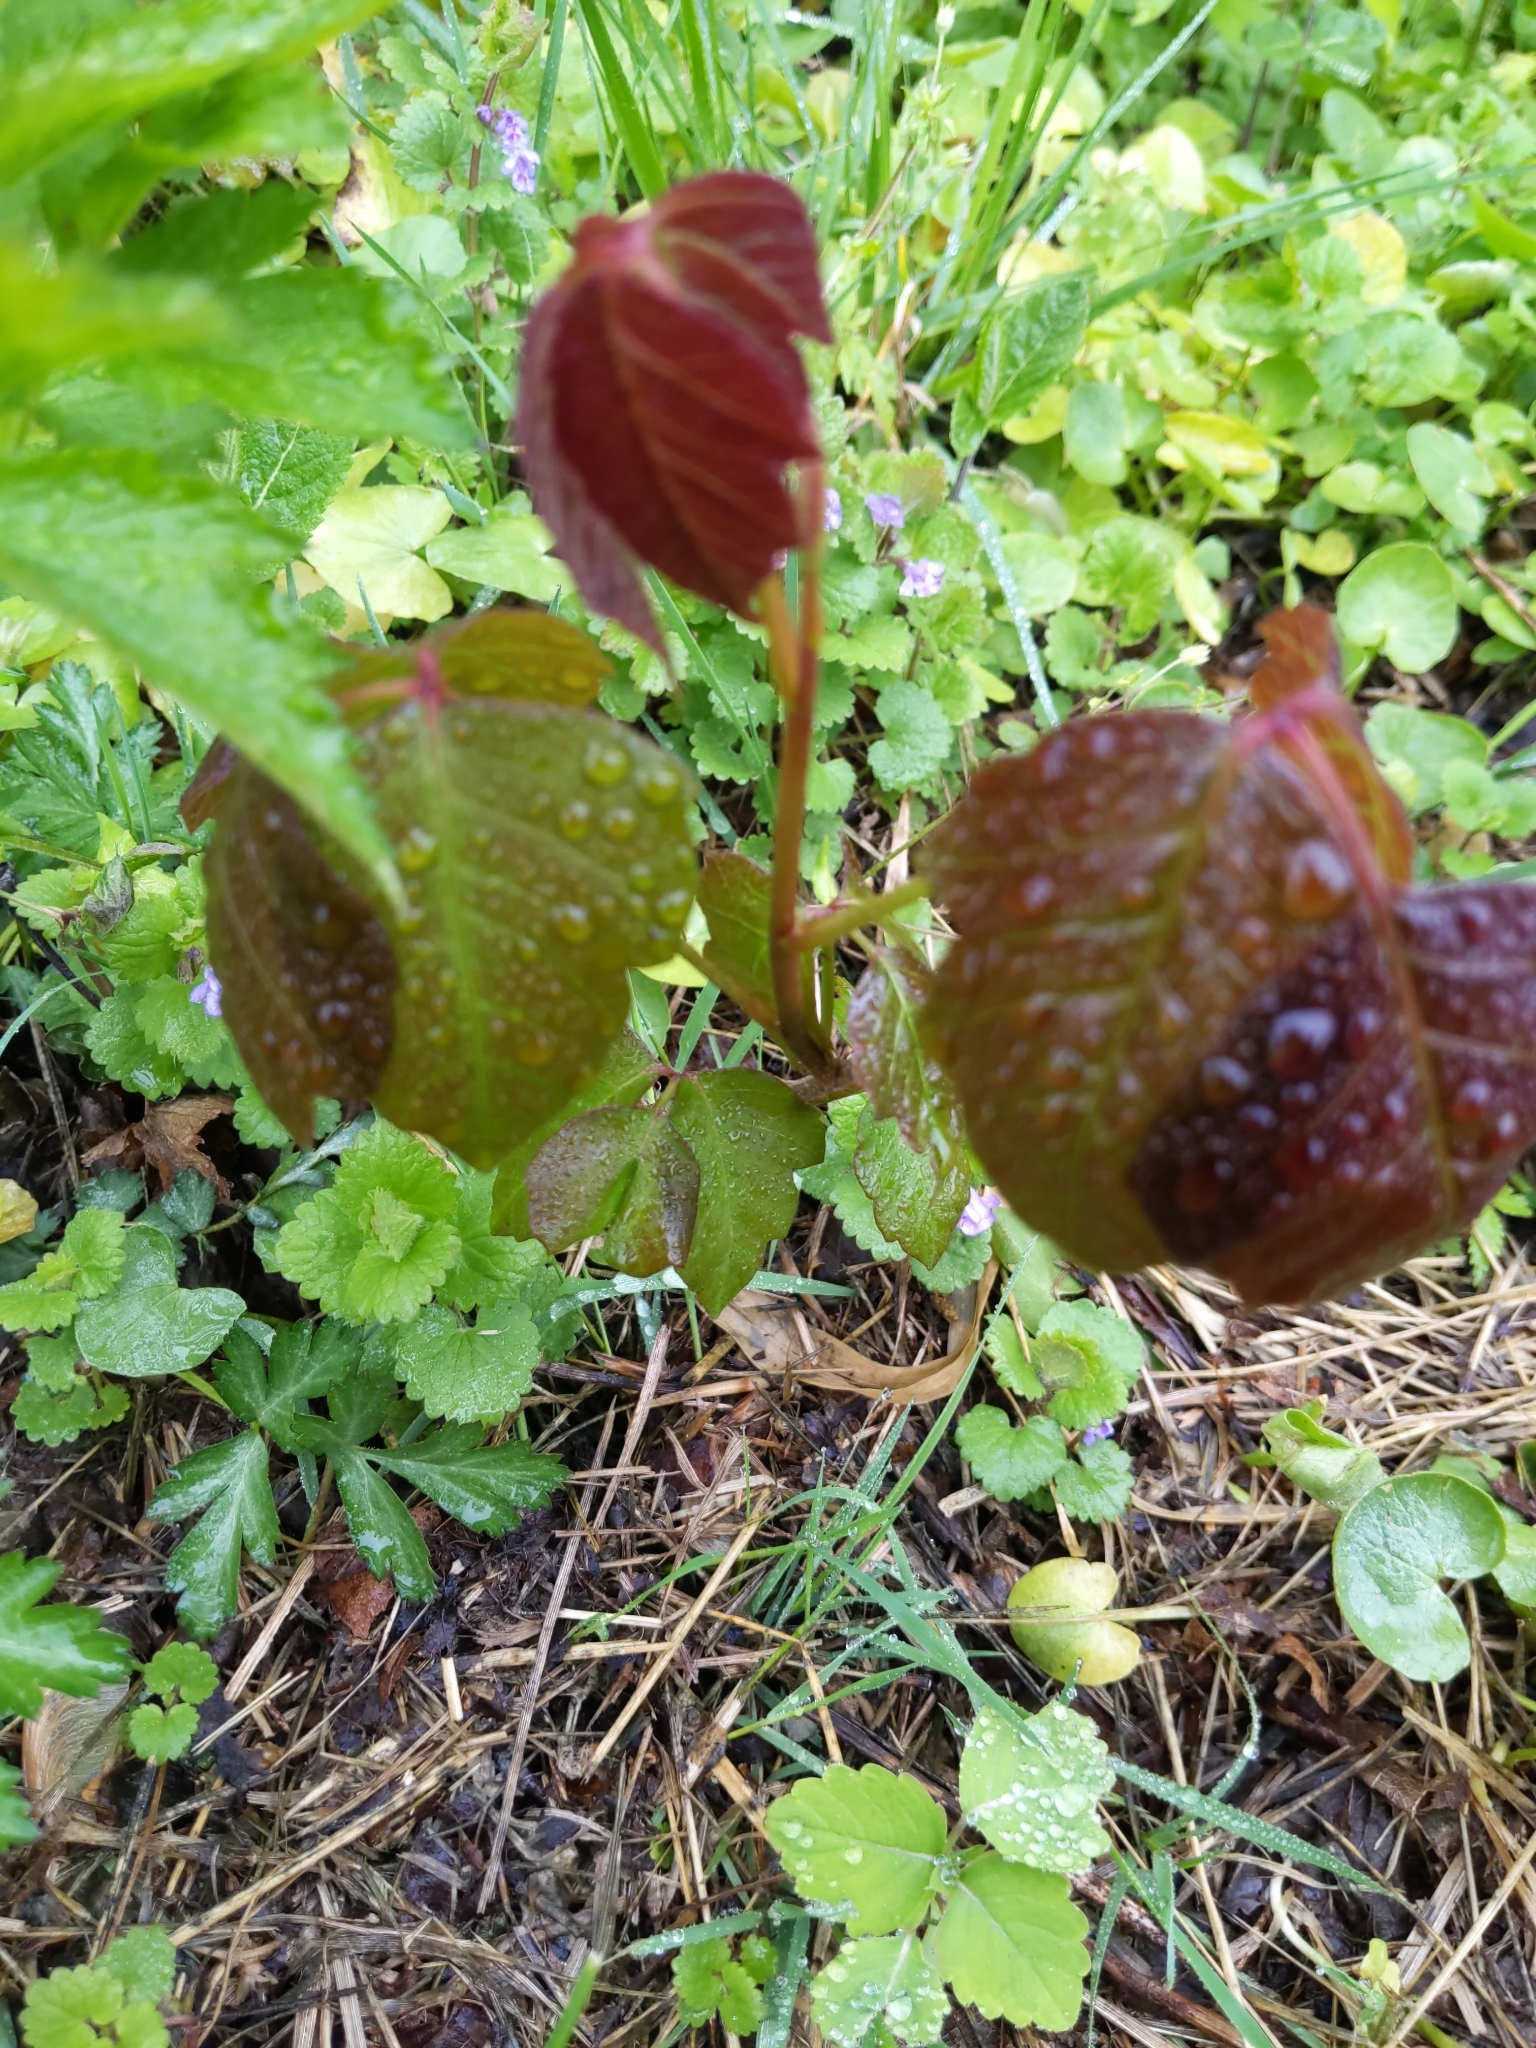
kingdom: Plantae
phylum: Tracheophyta
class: Magnoliopsida
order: Sapindales
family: Anacardiaceae
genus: Toxicodendron
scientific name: Toxicodendron radicans
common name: Poison ivy
